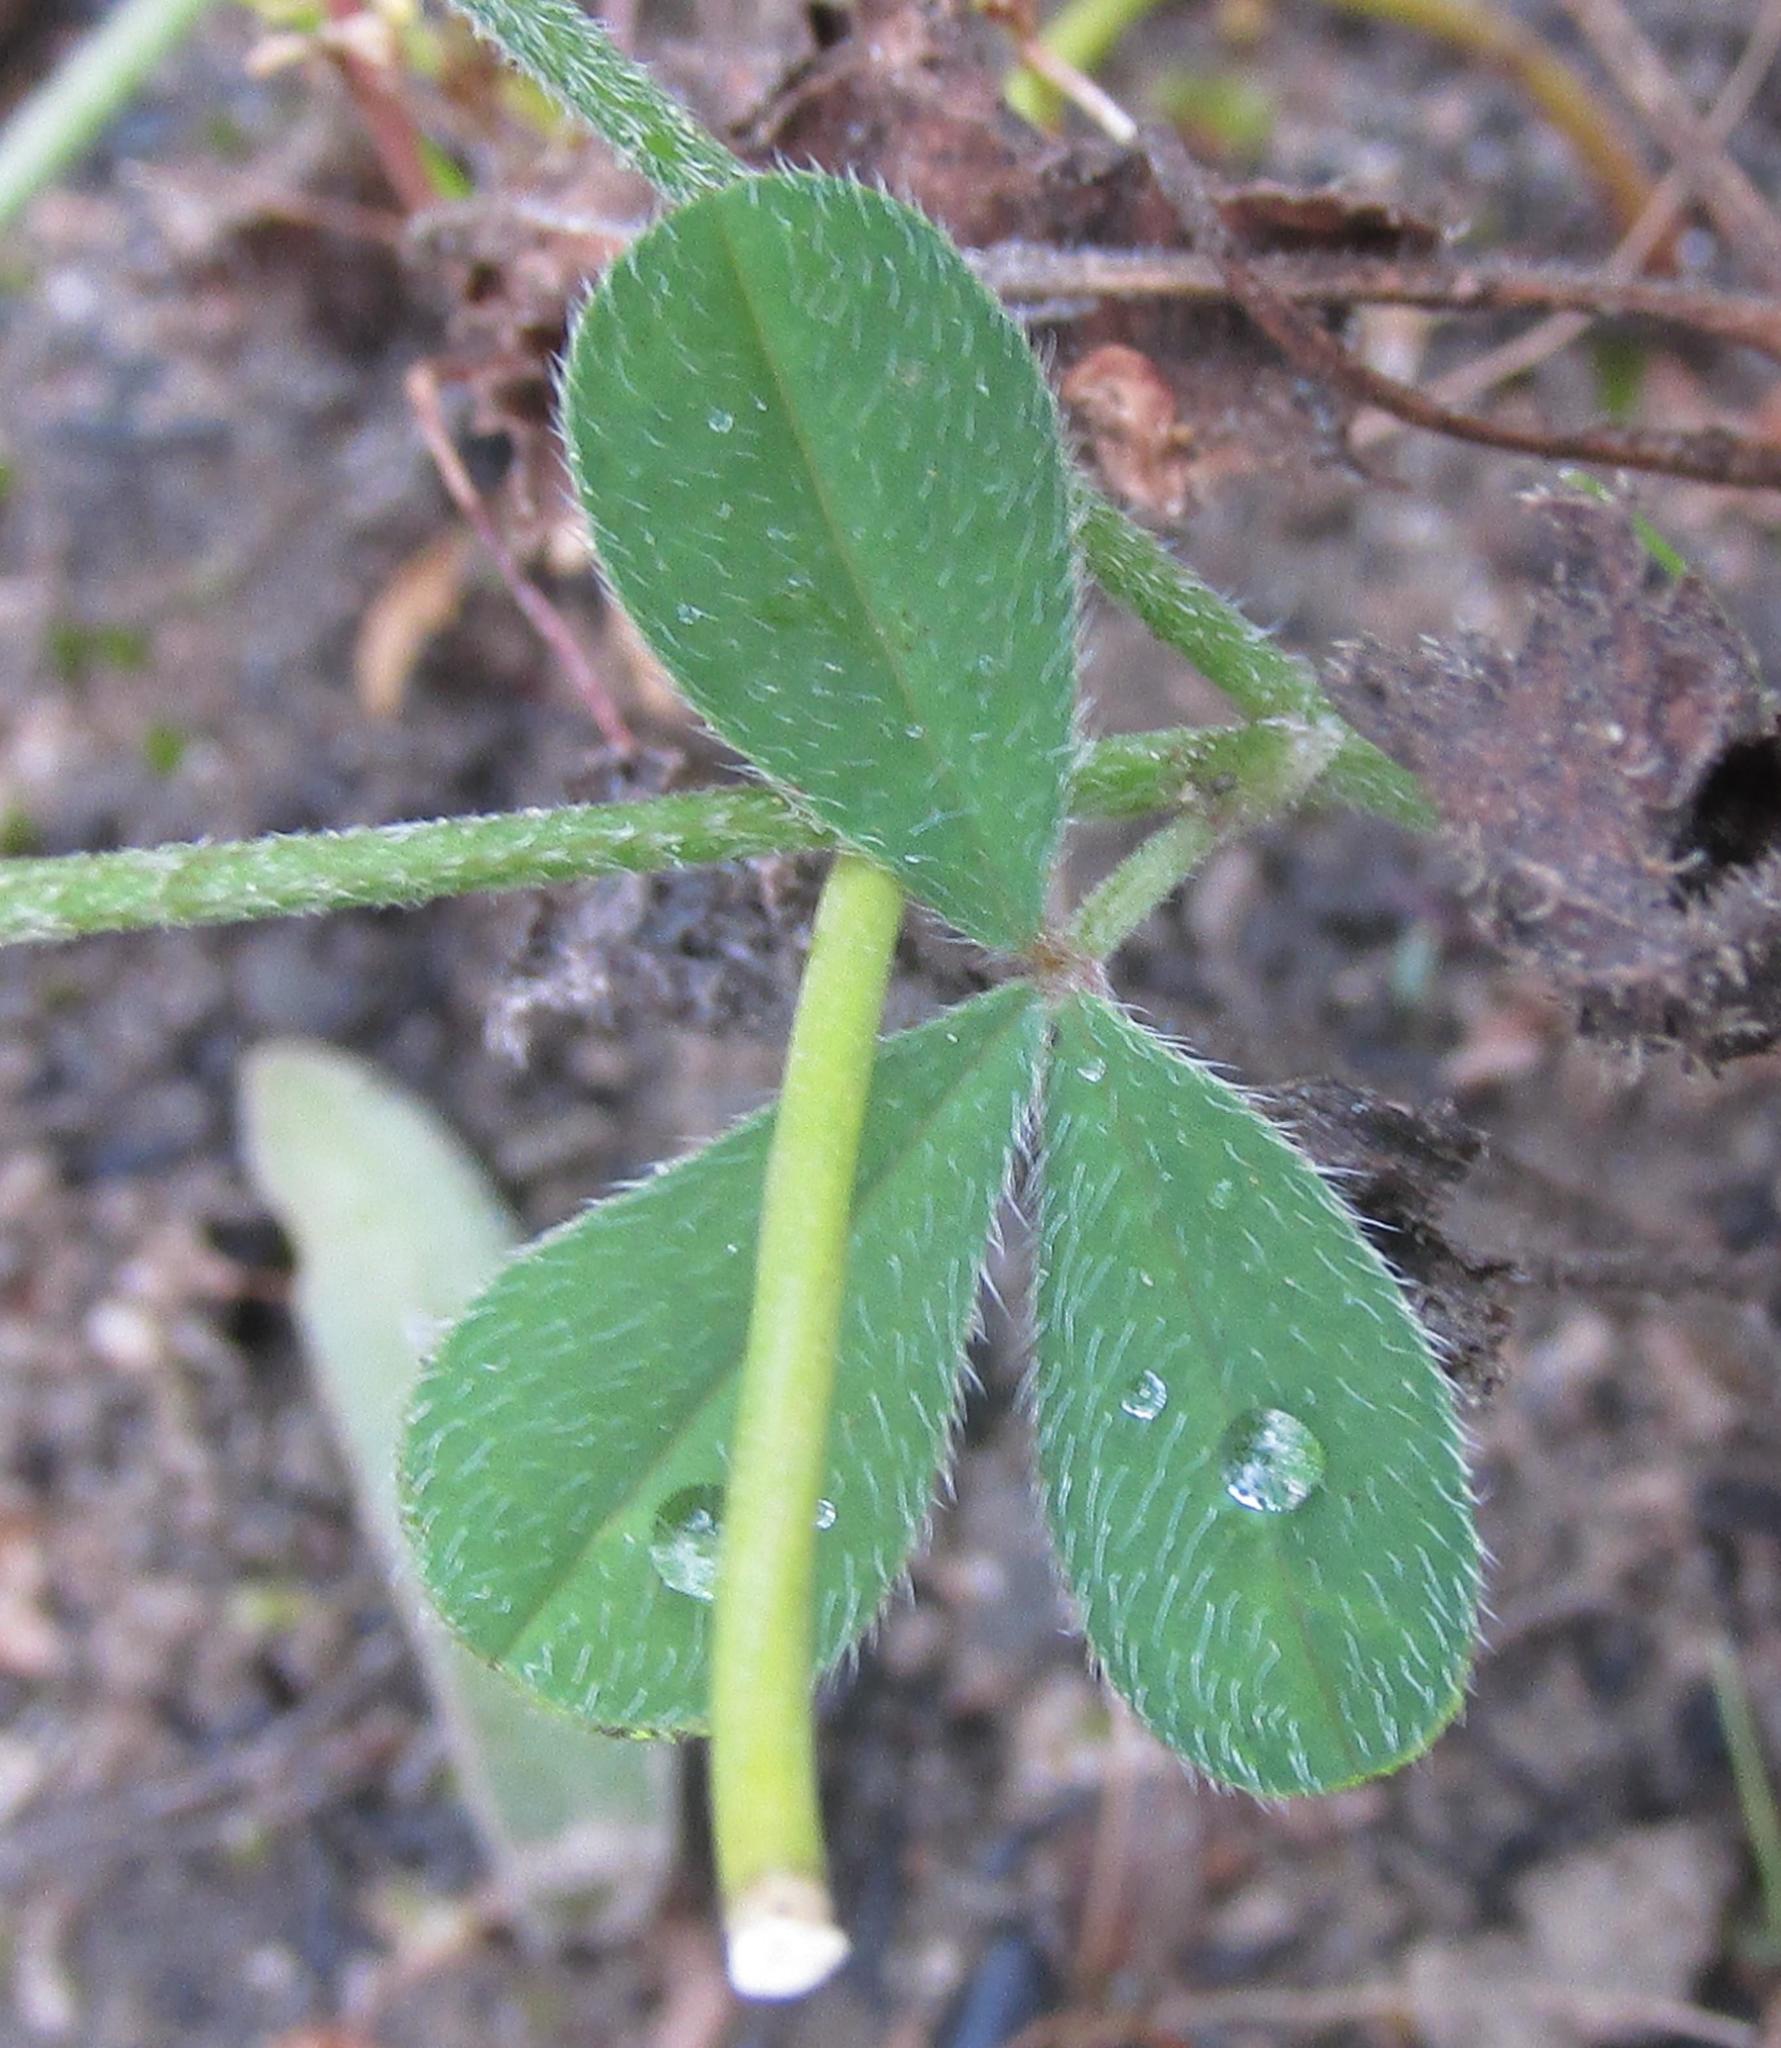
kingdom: Plantae
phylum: Tracheophyta
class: Magnoliopsida
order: Fabales
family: Fabaceae
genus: Indigofera
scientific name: Indigofera incana
